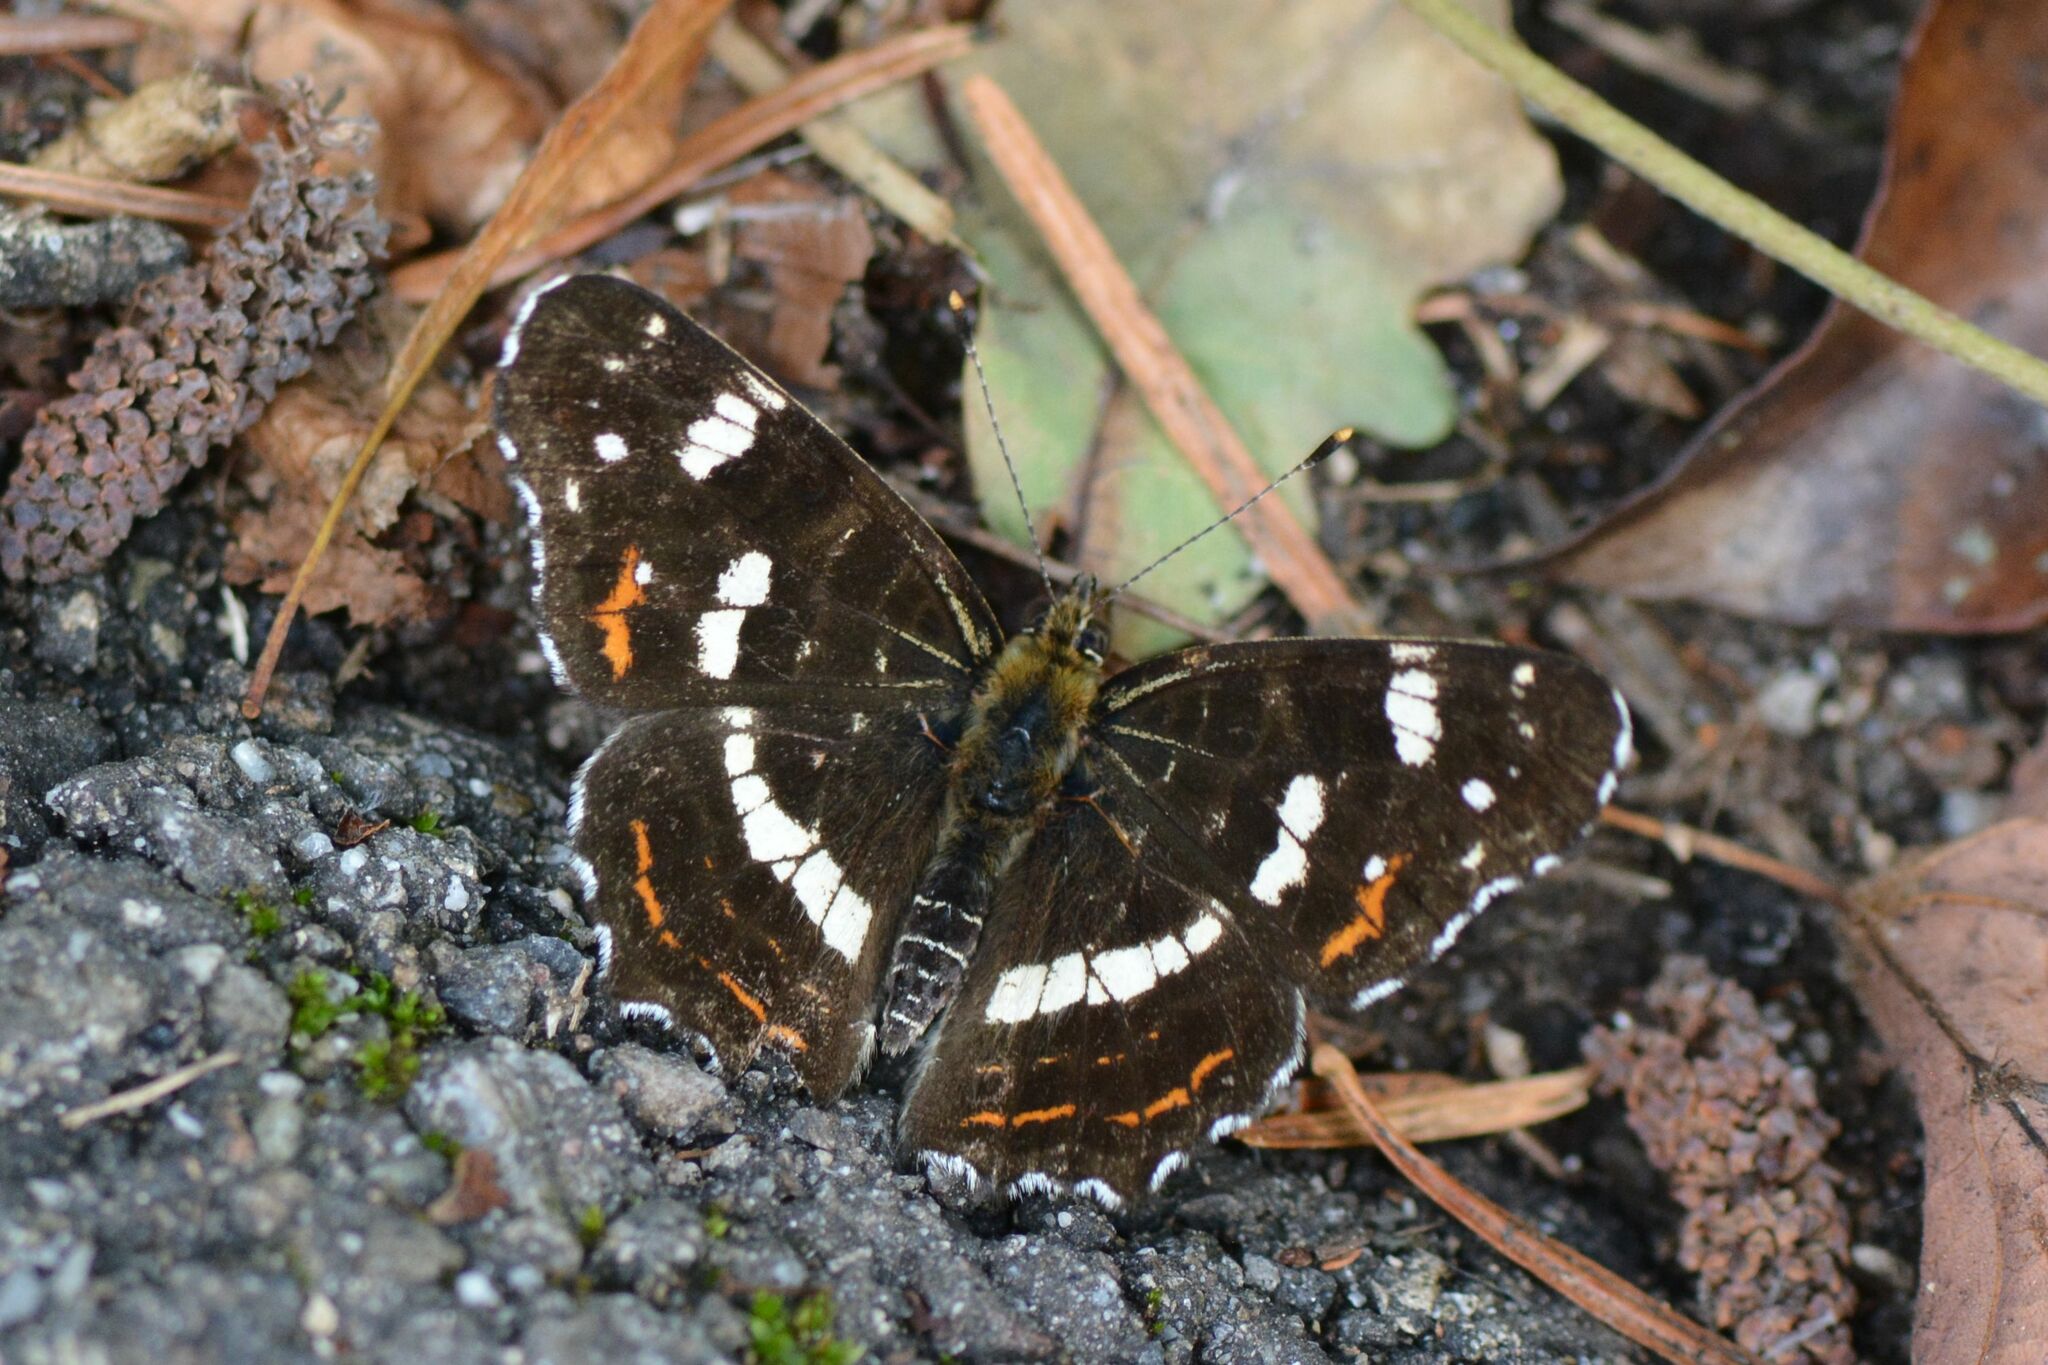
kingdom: Animalia
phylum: Arthropoda
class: Insecta
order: Lepidoptera
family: Nymphalidae
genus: Araschnia
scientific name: Araschnia levana
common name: Map butterfly
